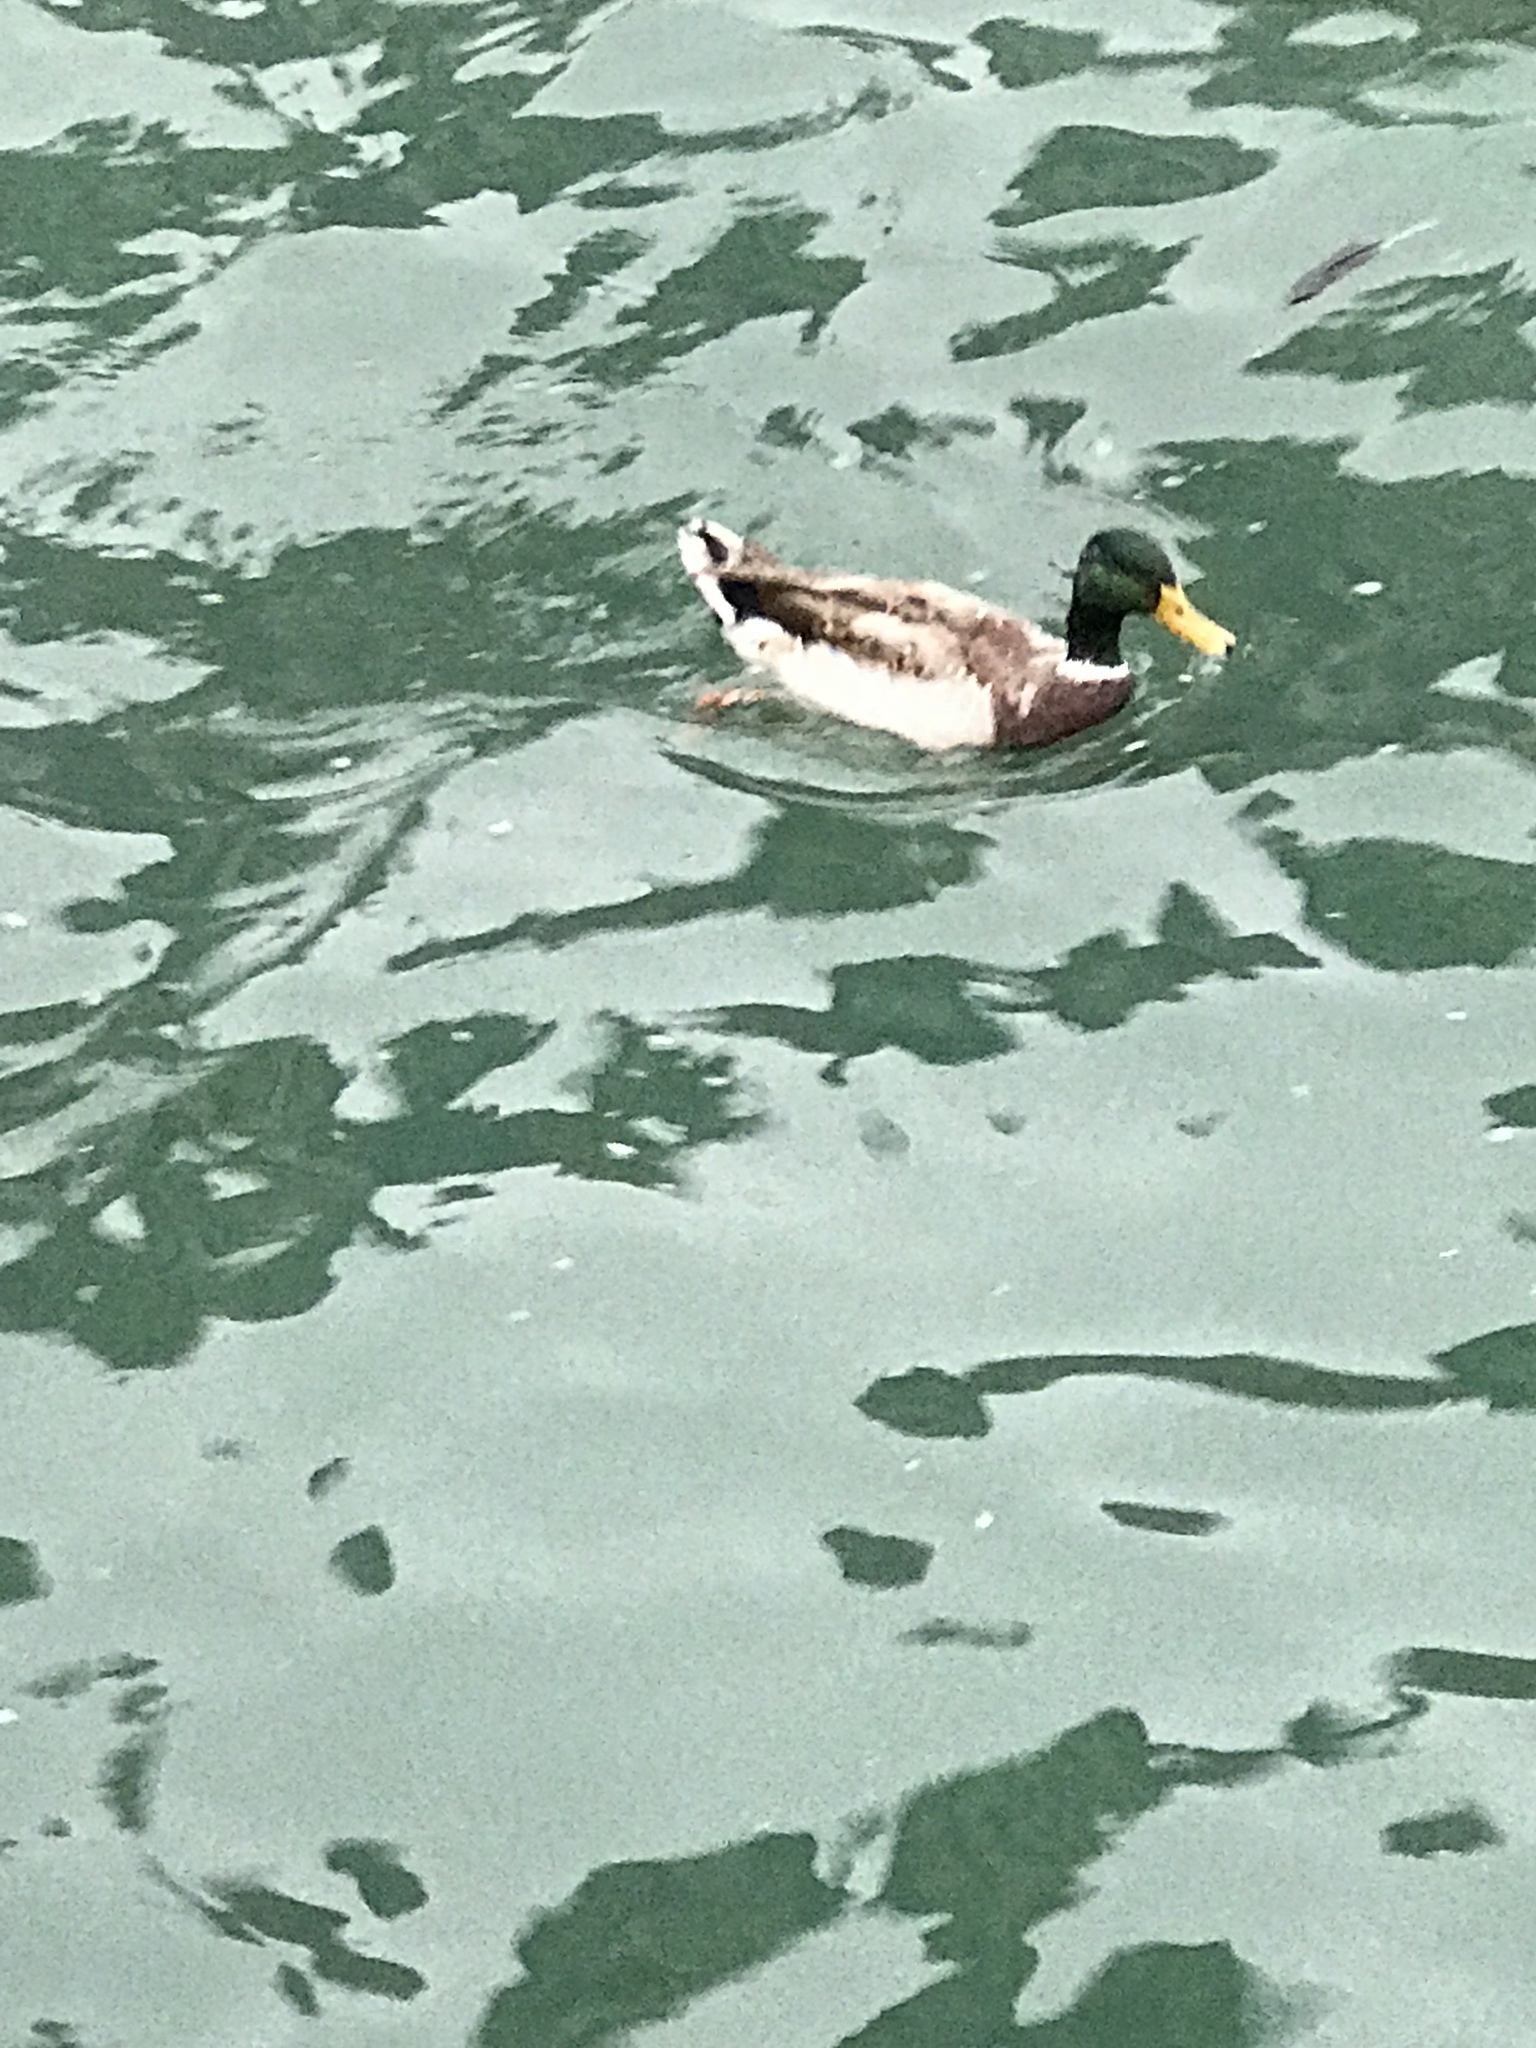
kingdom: Animalia
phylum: Chordata
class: Aves
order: Anseriformes
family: Anatidae
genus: Anas
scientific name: Anas platyrhynchos
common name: Mallard
